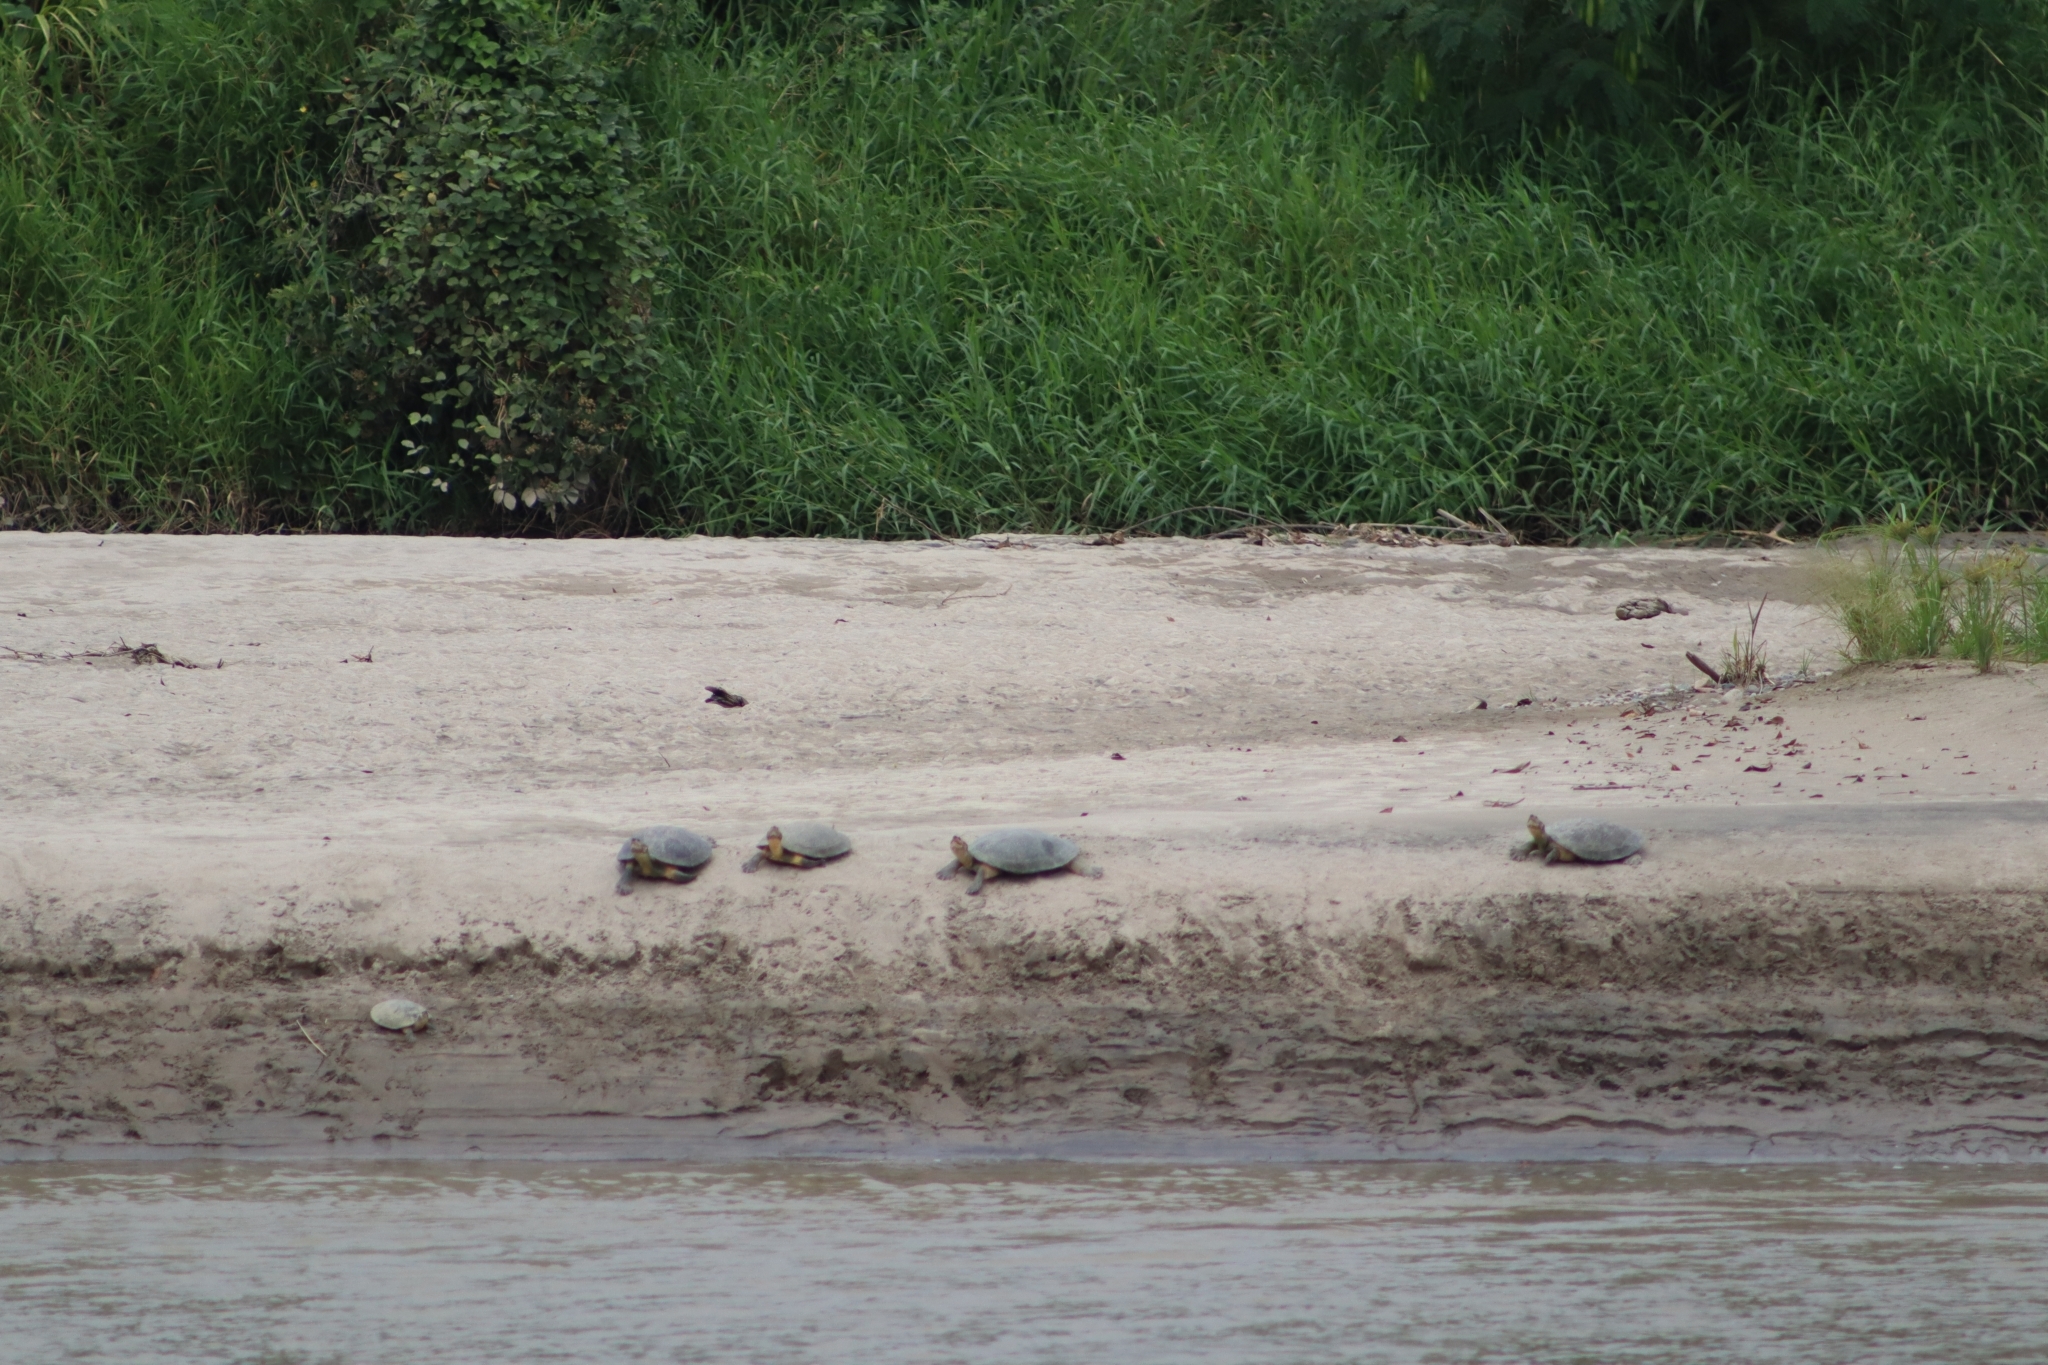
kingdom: Animalia
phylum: Chordata
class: Testudines
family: Podocnemididae
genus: Podocnemis
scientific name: Podocnemis lewyana
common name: Rio magdalena river turtle
